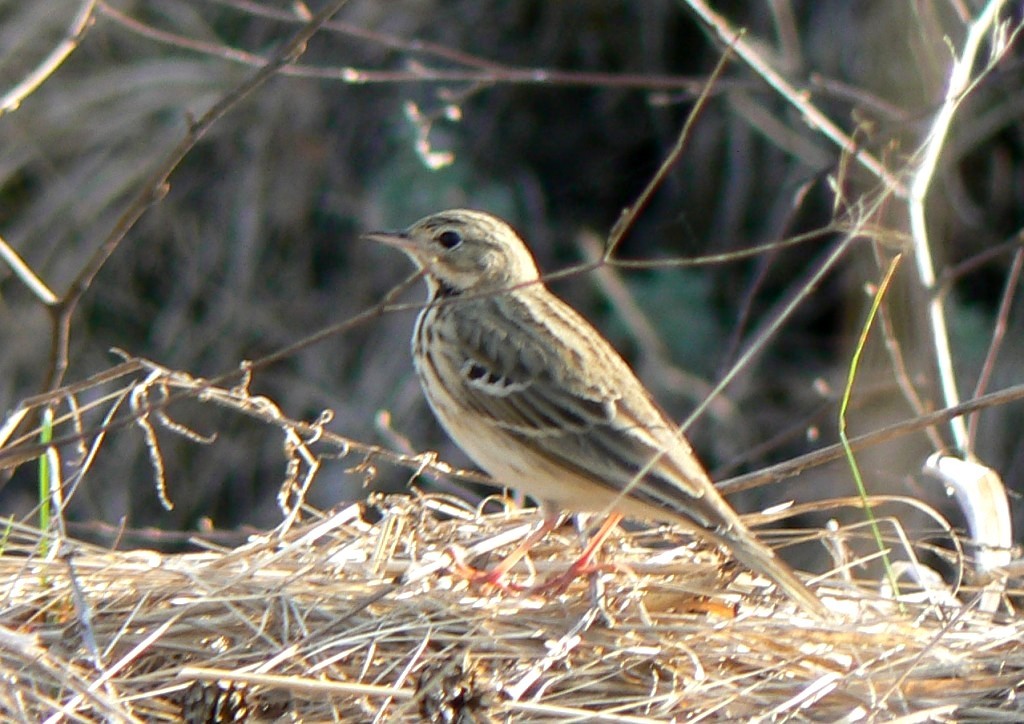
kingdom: Animalia
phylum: Chordata
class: Aves
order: Passeriformes
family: Motacillidae
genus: Anthus
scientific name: Anthus trivialis
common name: Tree pipit
